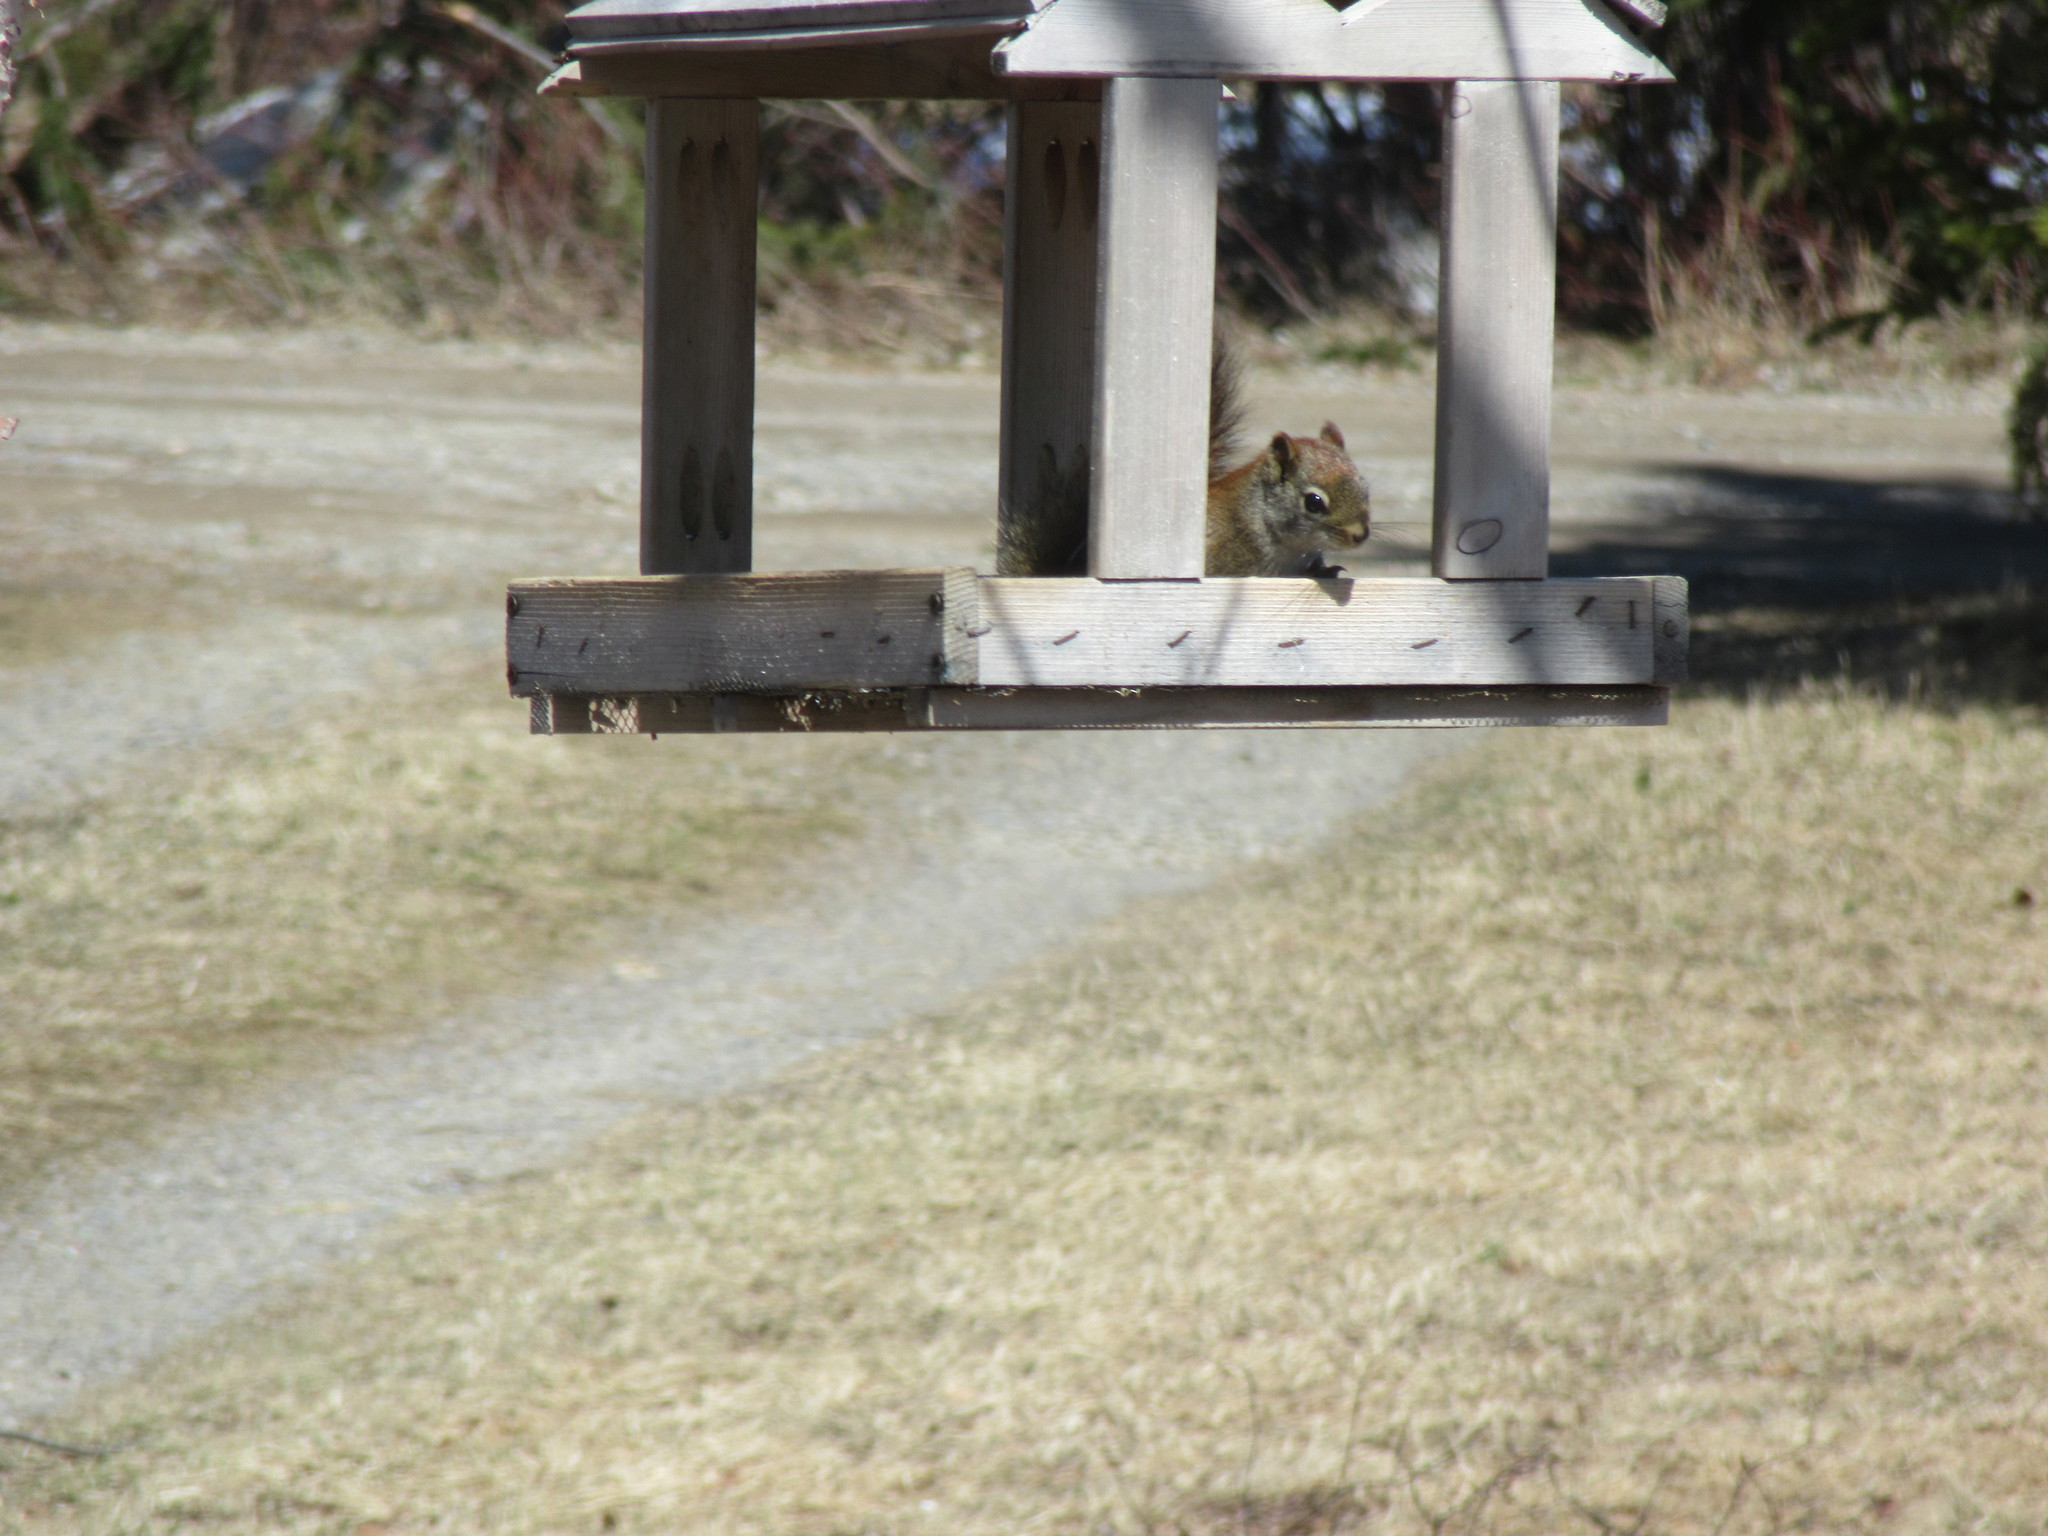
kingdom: Animalia
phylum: Chordata
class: Mammalia
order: Rodentia
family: Sciuridae
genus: Tamiasciurus
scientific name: Tamiasciurus hudsonicus
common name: Red squirrel
